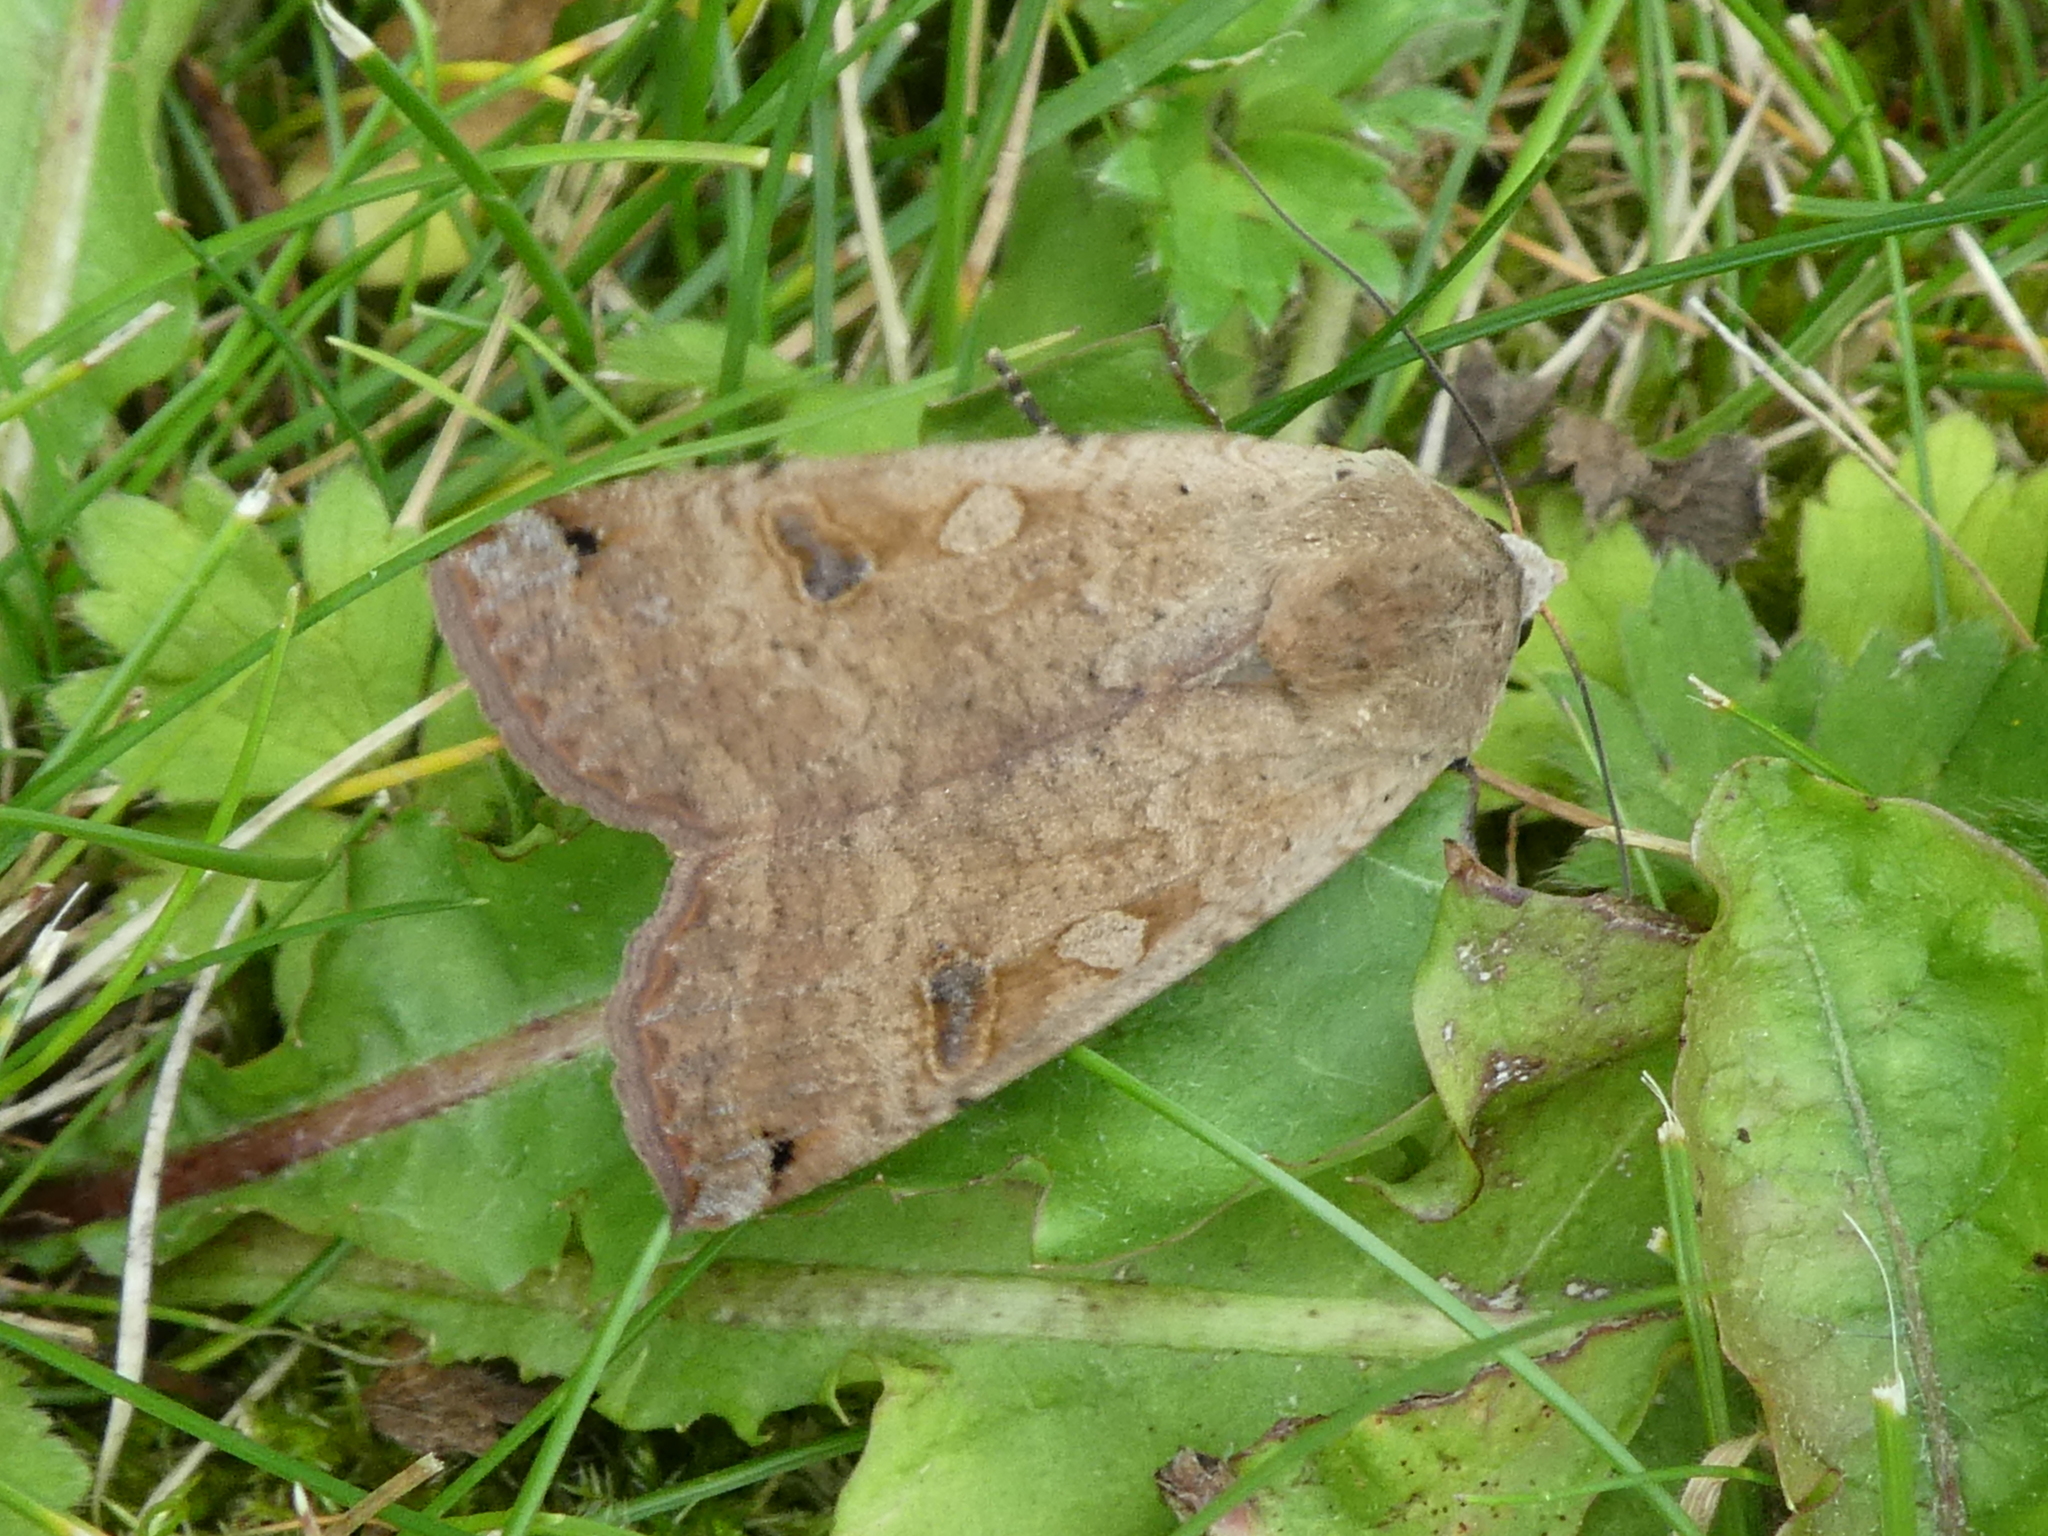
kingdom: Animalia
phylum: Arthropoda
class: Insecta
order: Lepidoptera
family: Noctuidae
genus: Noctua
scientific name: Noctua pronuba
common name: Large yellow underwing
